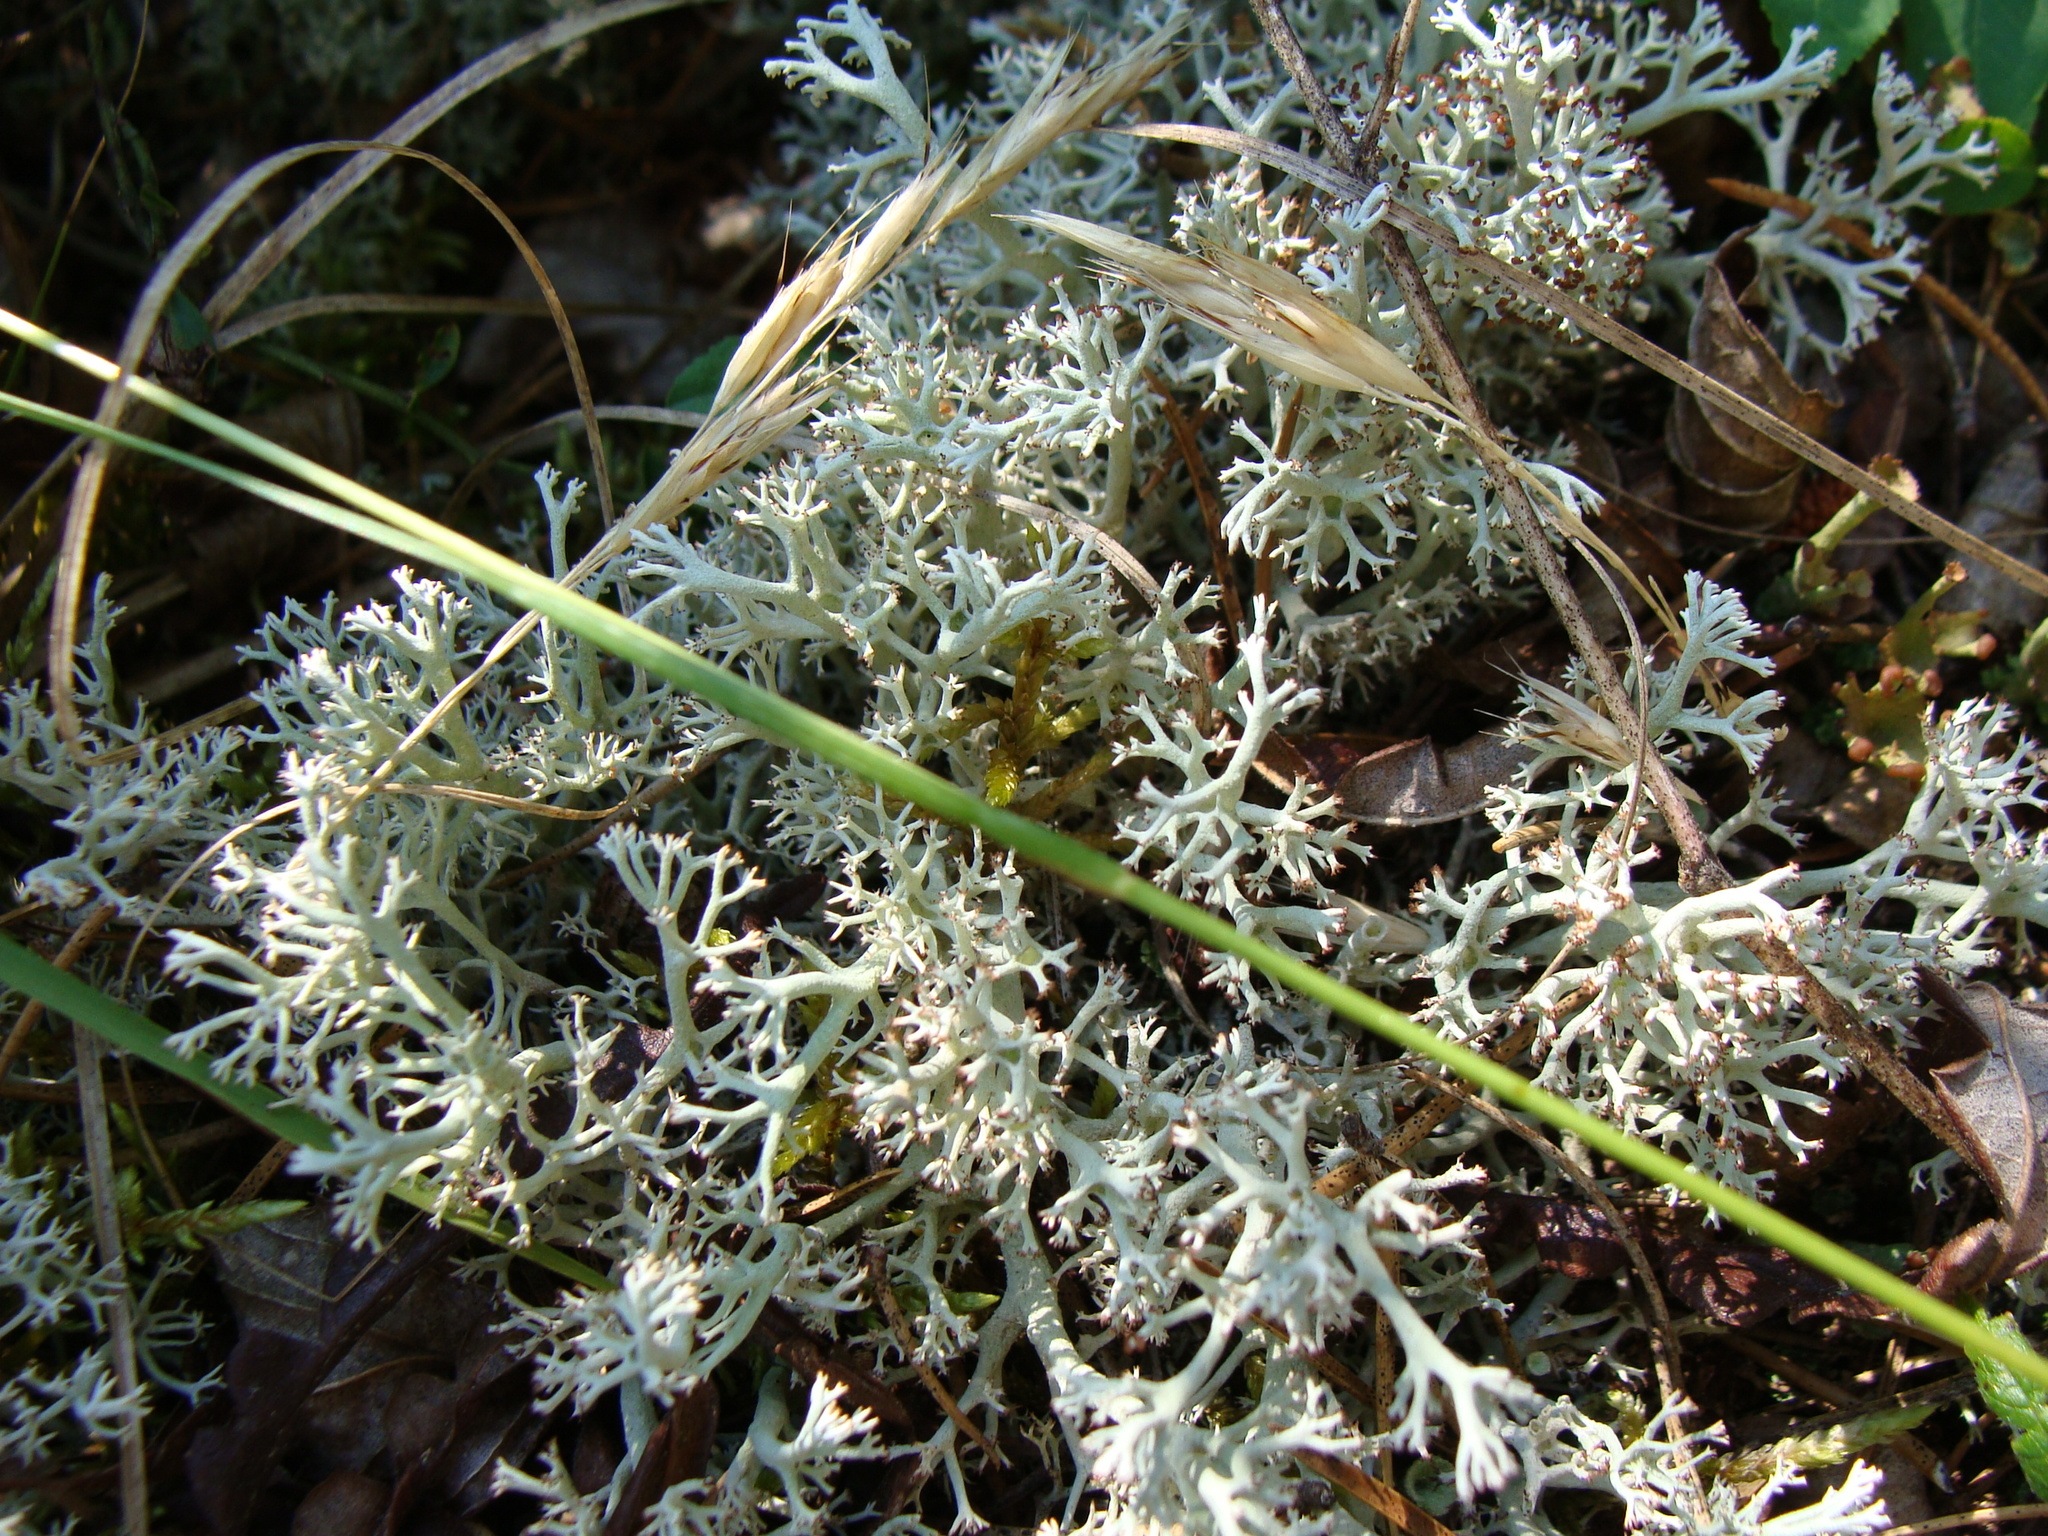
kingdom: Fungi
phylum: Ascomycota
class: Lecanoromycetes
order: Lecanorales
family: Cladoniaceae
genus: Cladonia
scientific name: Cladonia rangiferina
